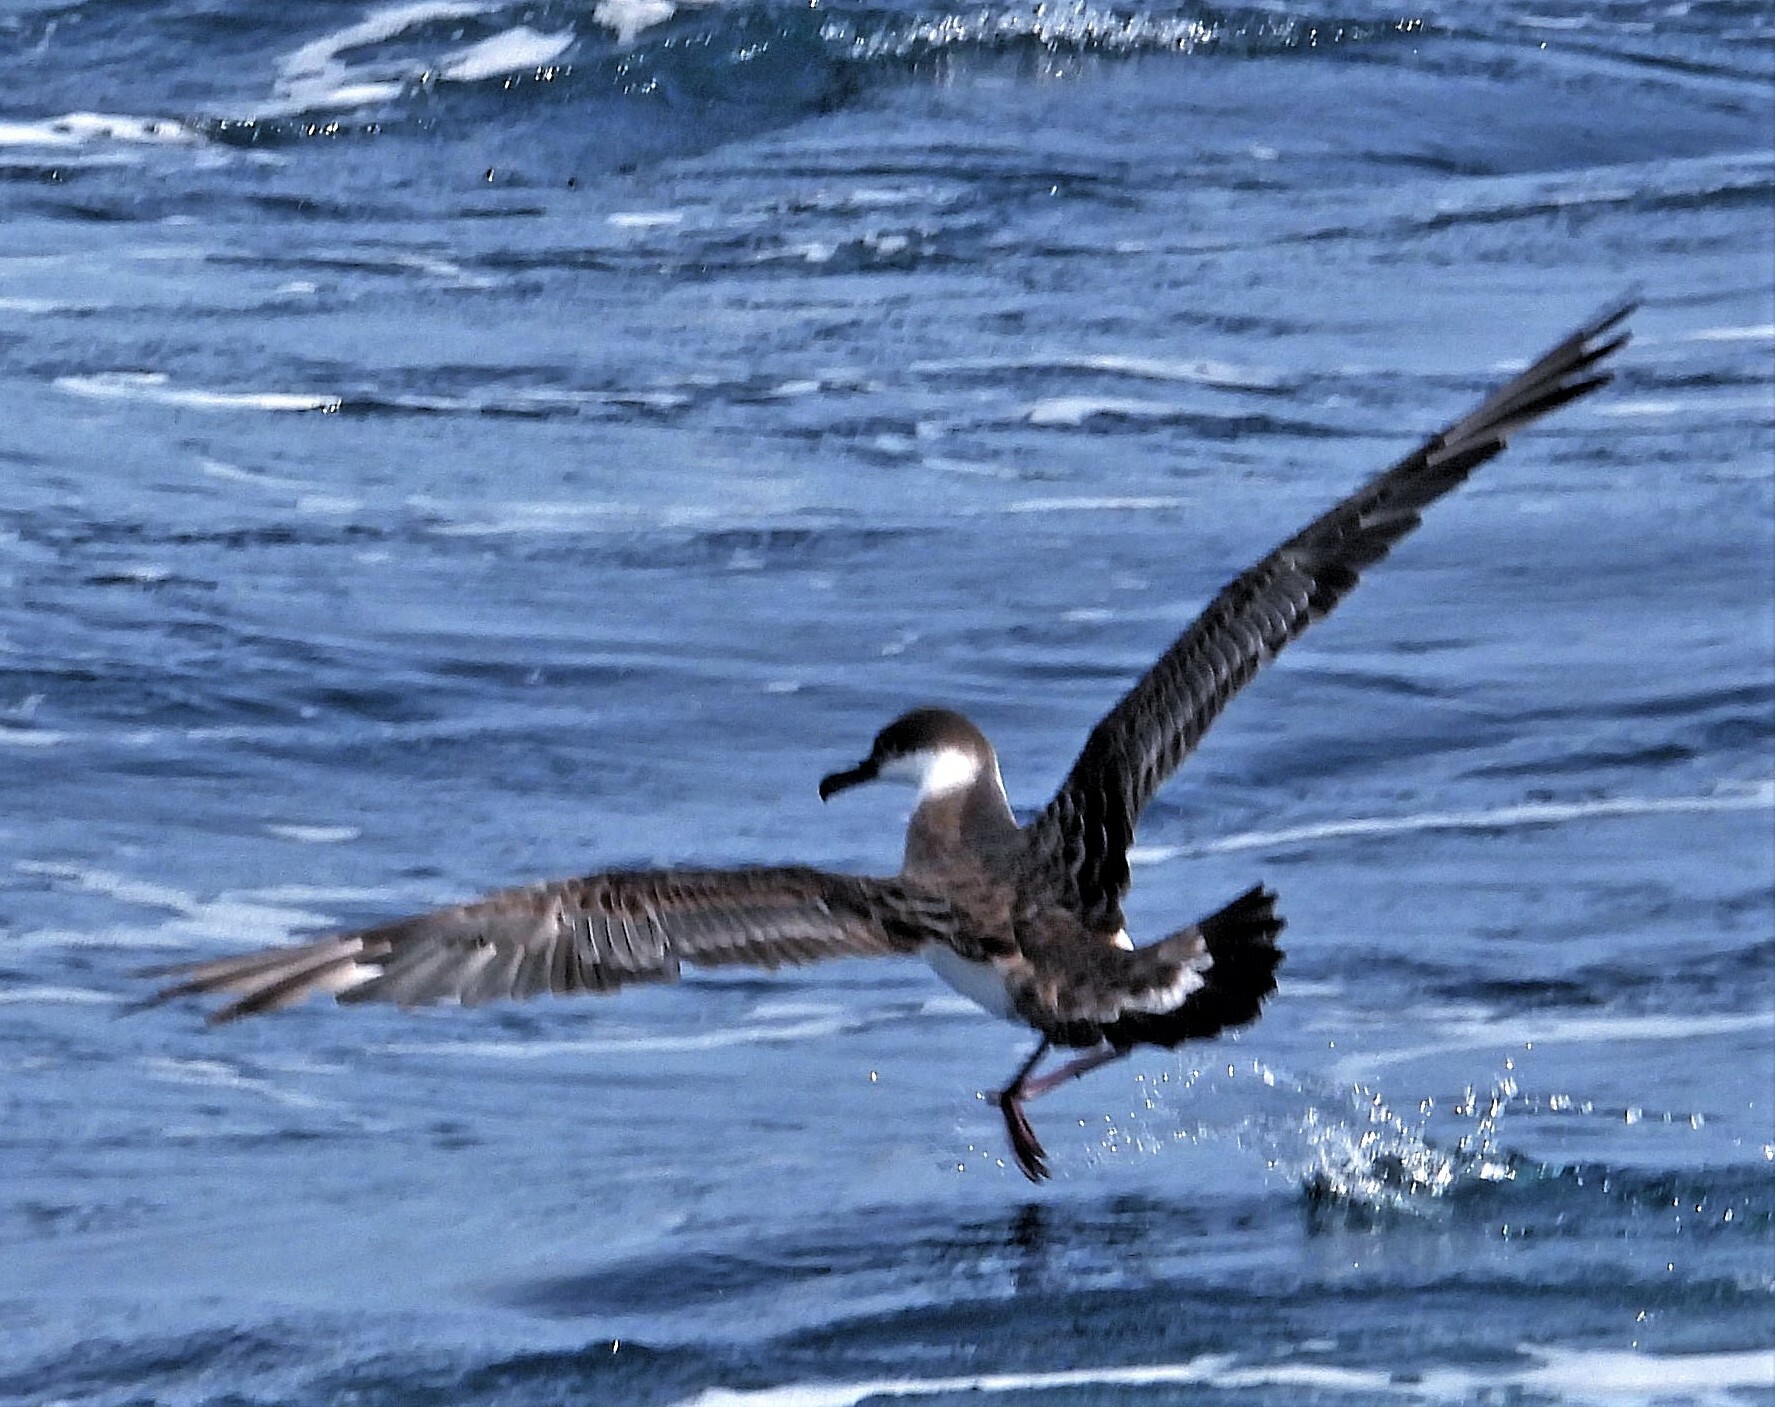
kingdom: Animalia
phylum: Chordata
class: Aves
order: Procellariiformes
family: Procellariidae
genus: Puffinus
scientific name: Puffinus gravis
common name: Great shearwater
